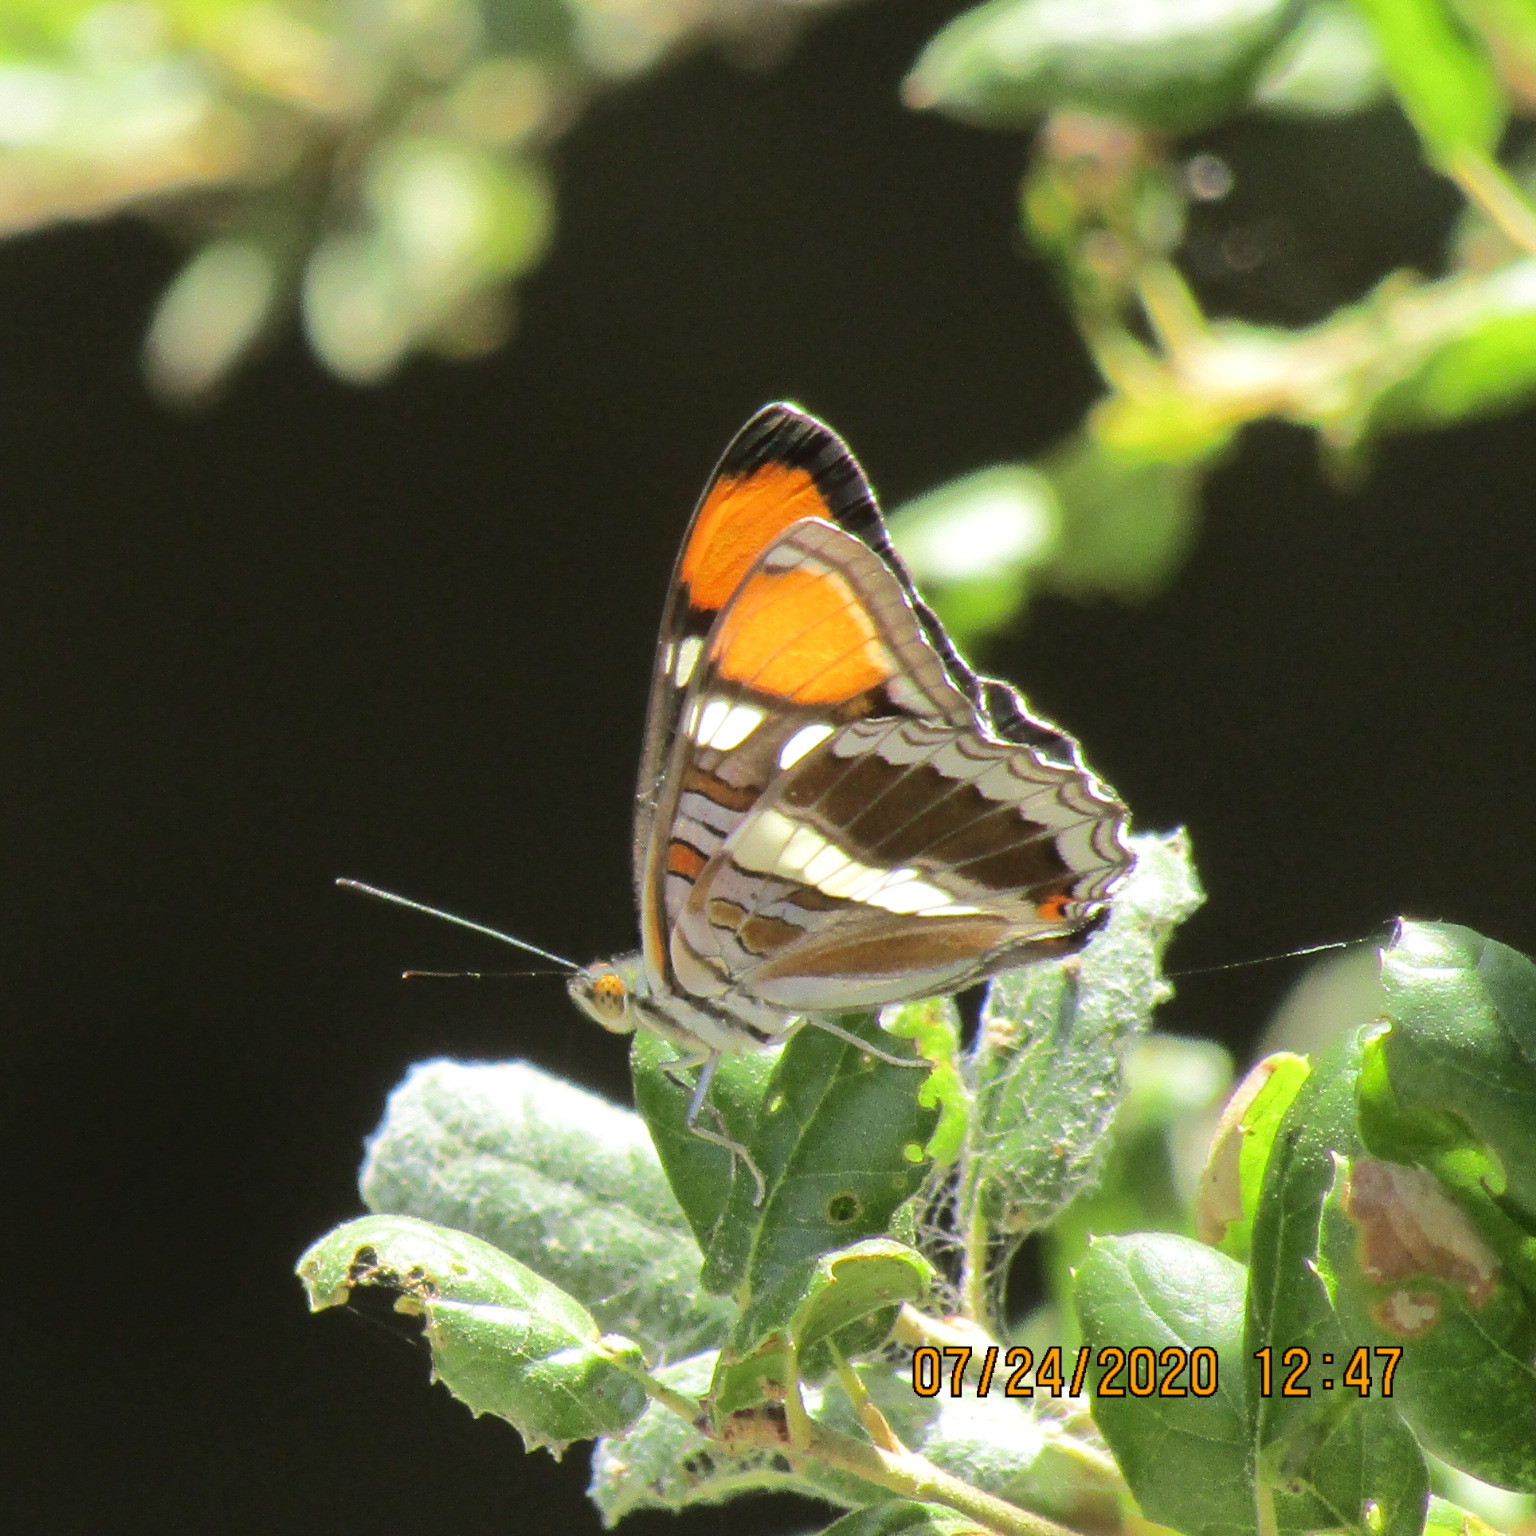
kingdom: Animalia
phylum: Arthropoda
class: Insecta
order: Lepidoptera
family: Nymphalidae
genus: Limenitis
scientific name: Limenitis bredowii
